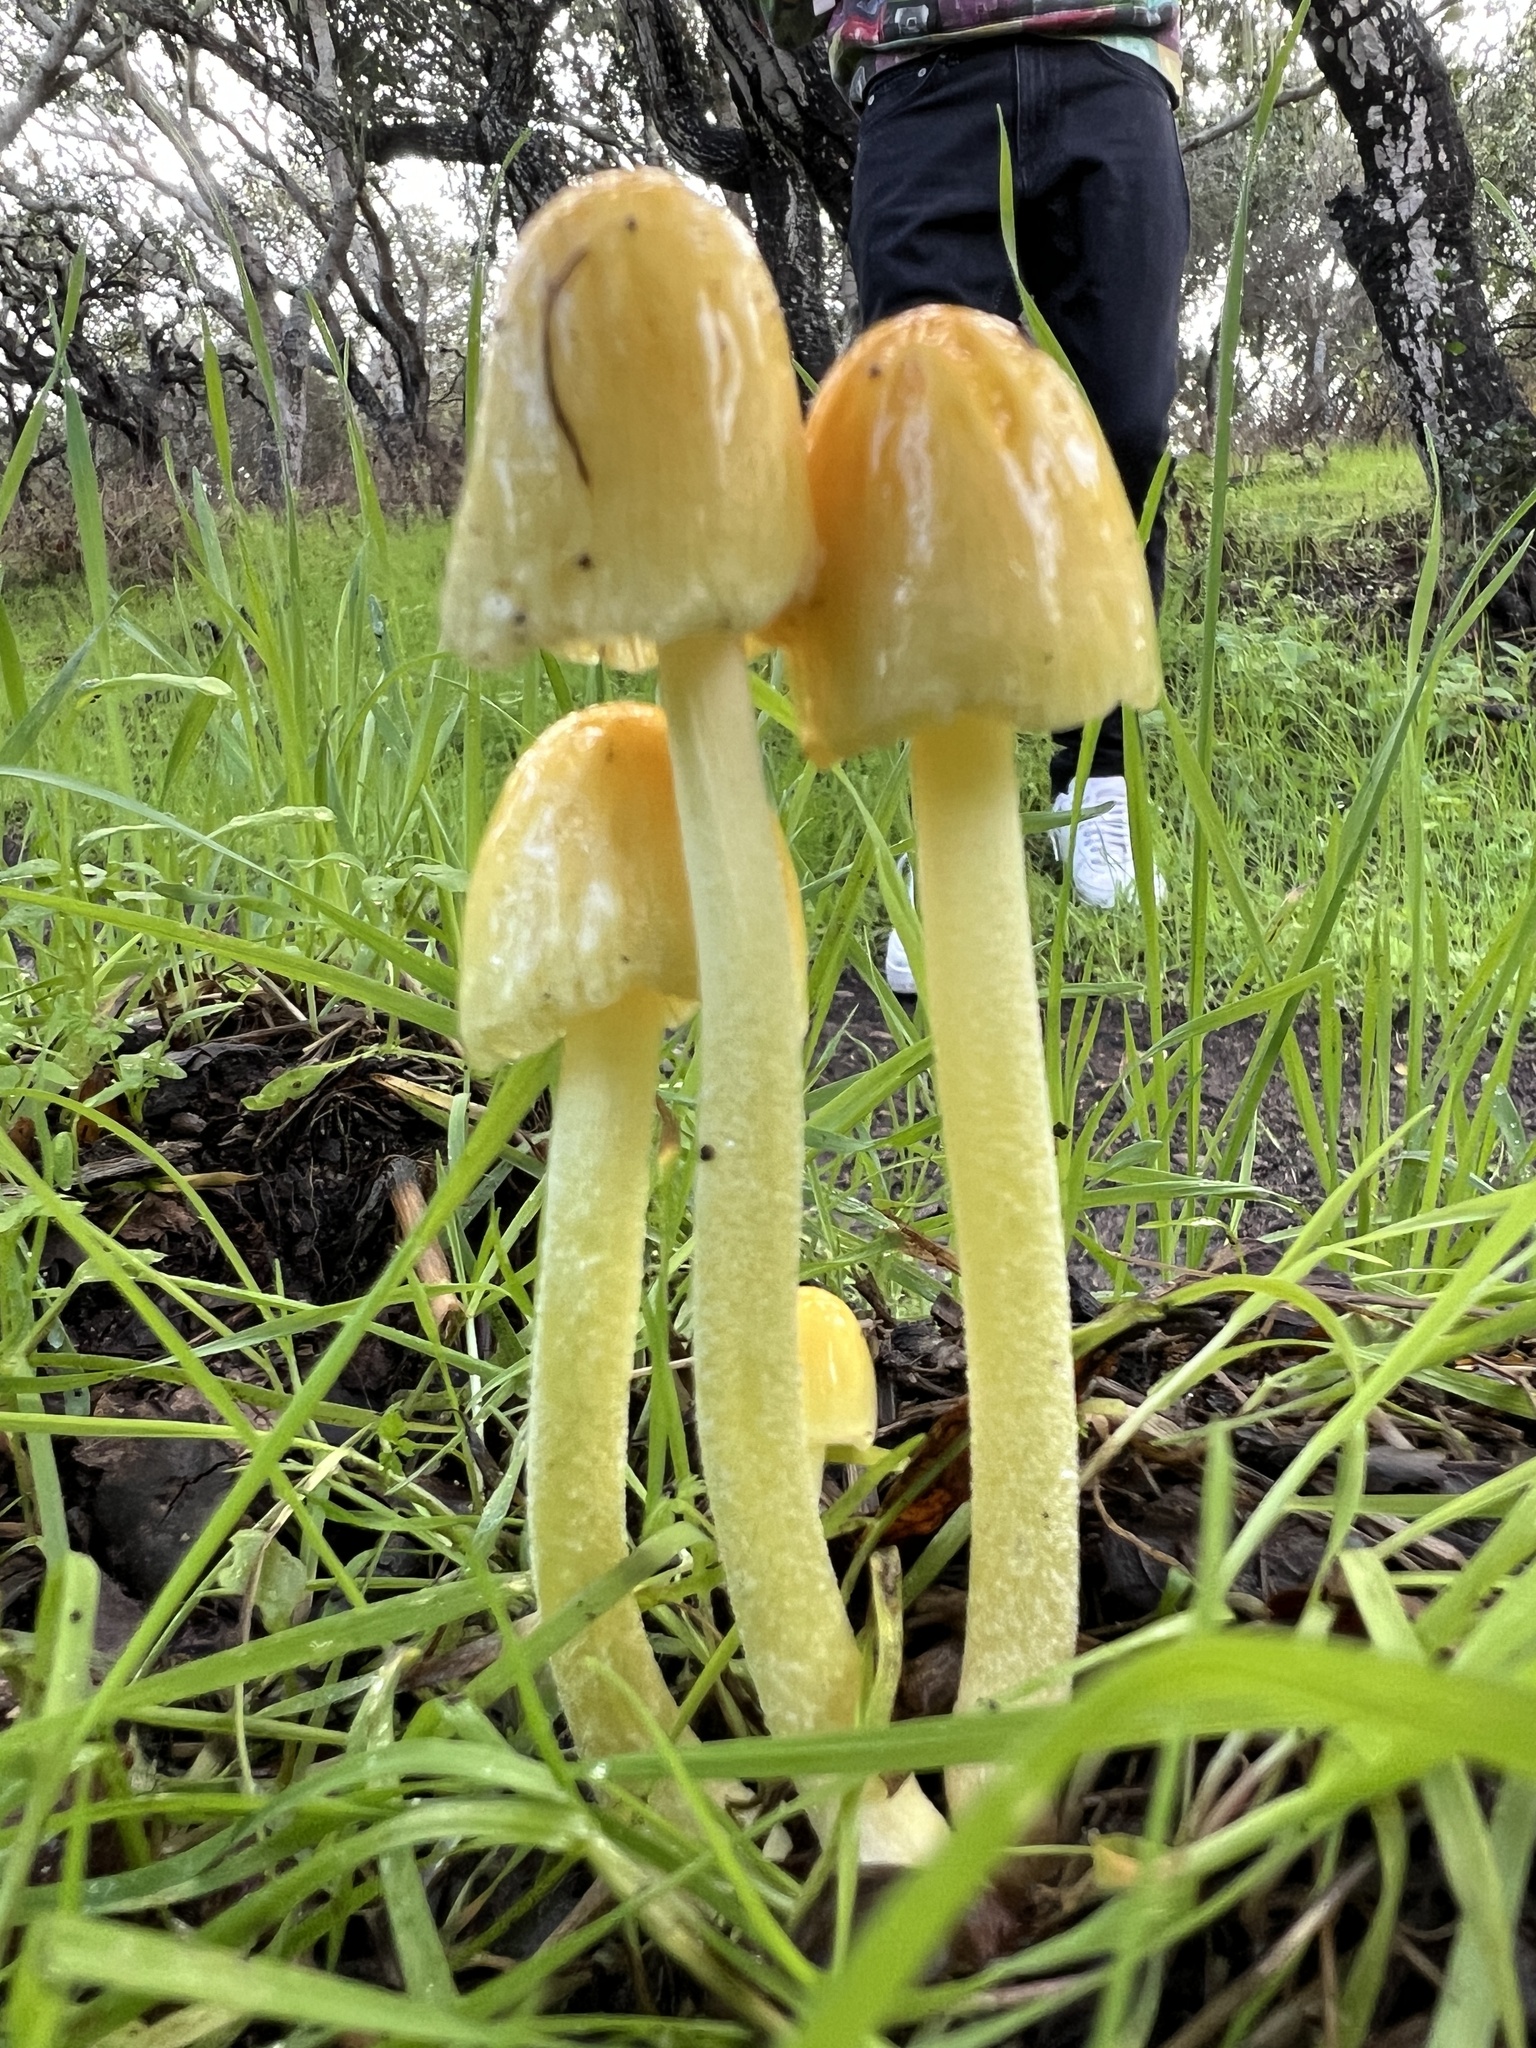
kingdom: Fungi
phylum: Basidiomycota
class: Agaricomycetes
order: Agaricales
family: Bolbitiaceae
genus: Bolbitius
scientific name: Bolbitius titubans
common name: Yellow fieldcap
